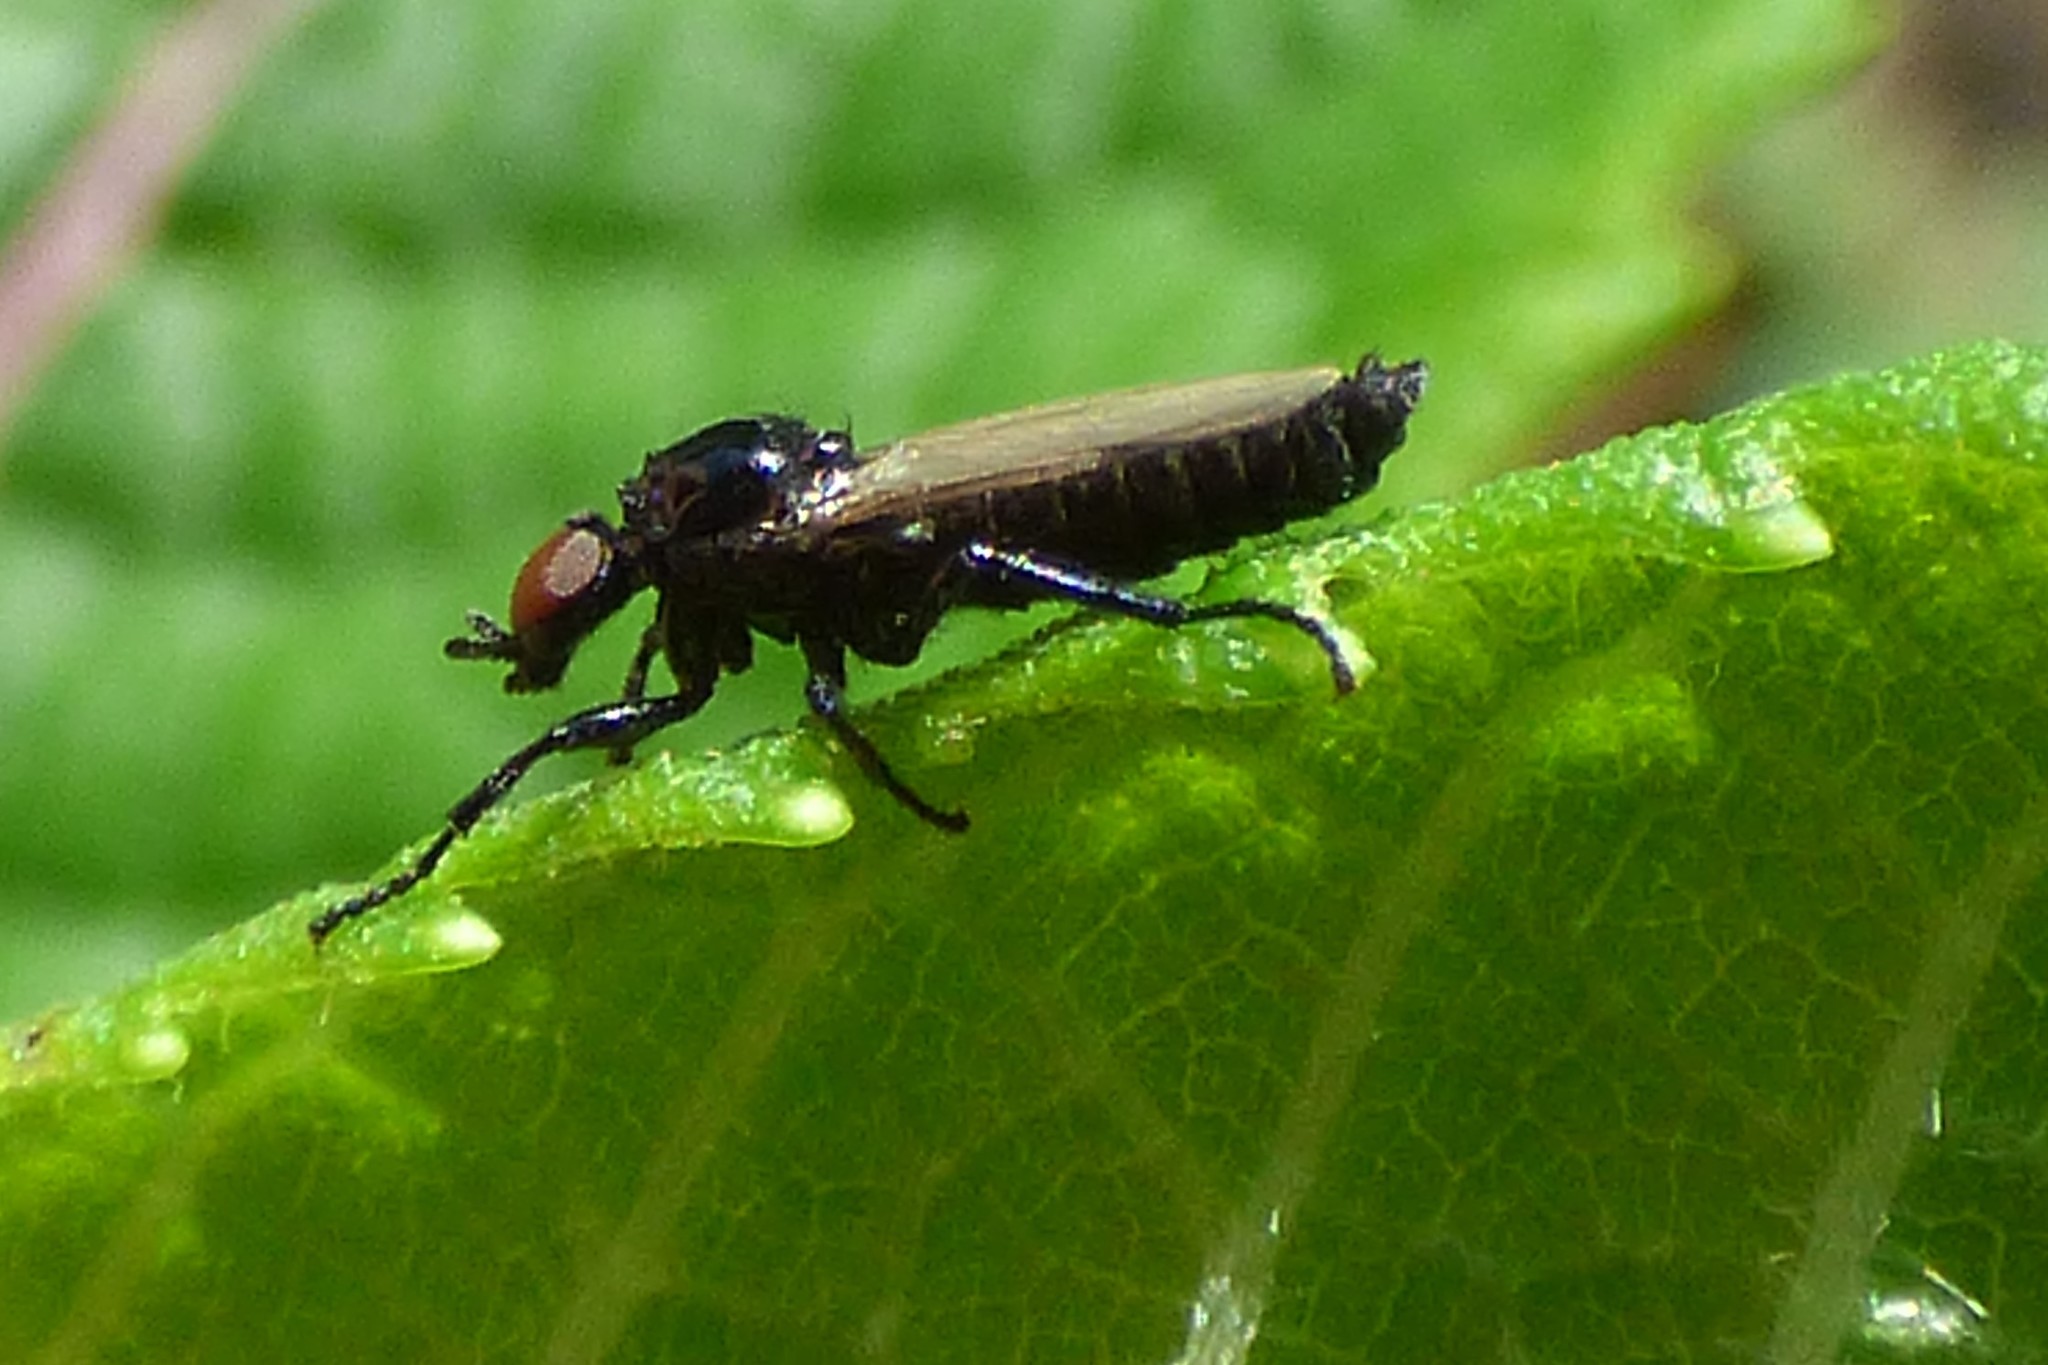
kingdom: Animalia
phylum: Arthropoda
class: Insecta
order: Diptera
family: Bibionidae
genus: Dilophus
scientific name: Dilophus
